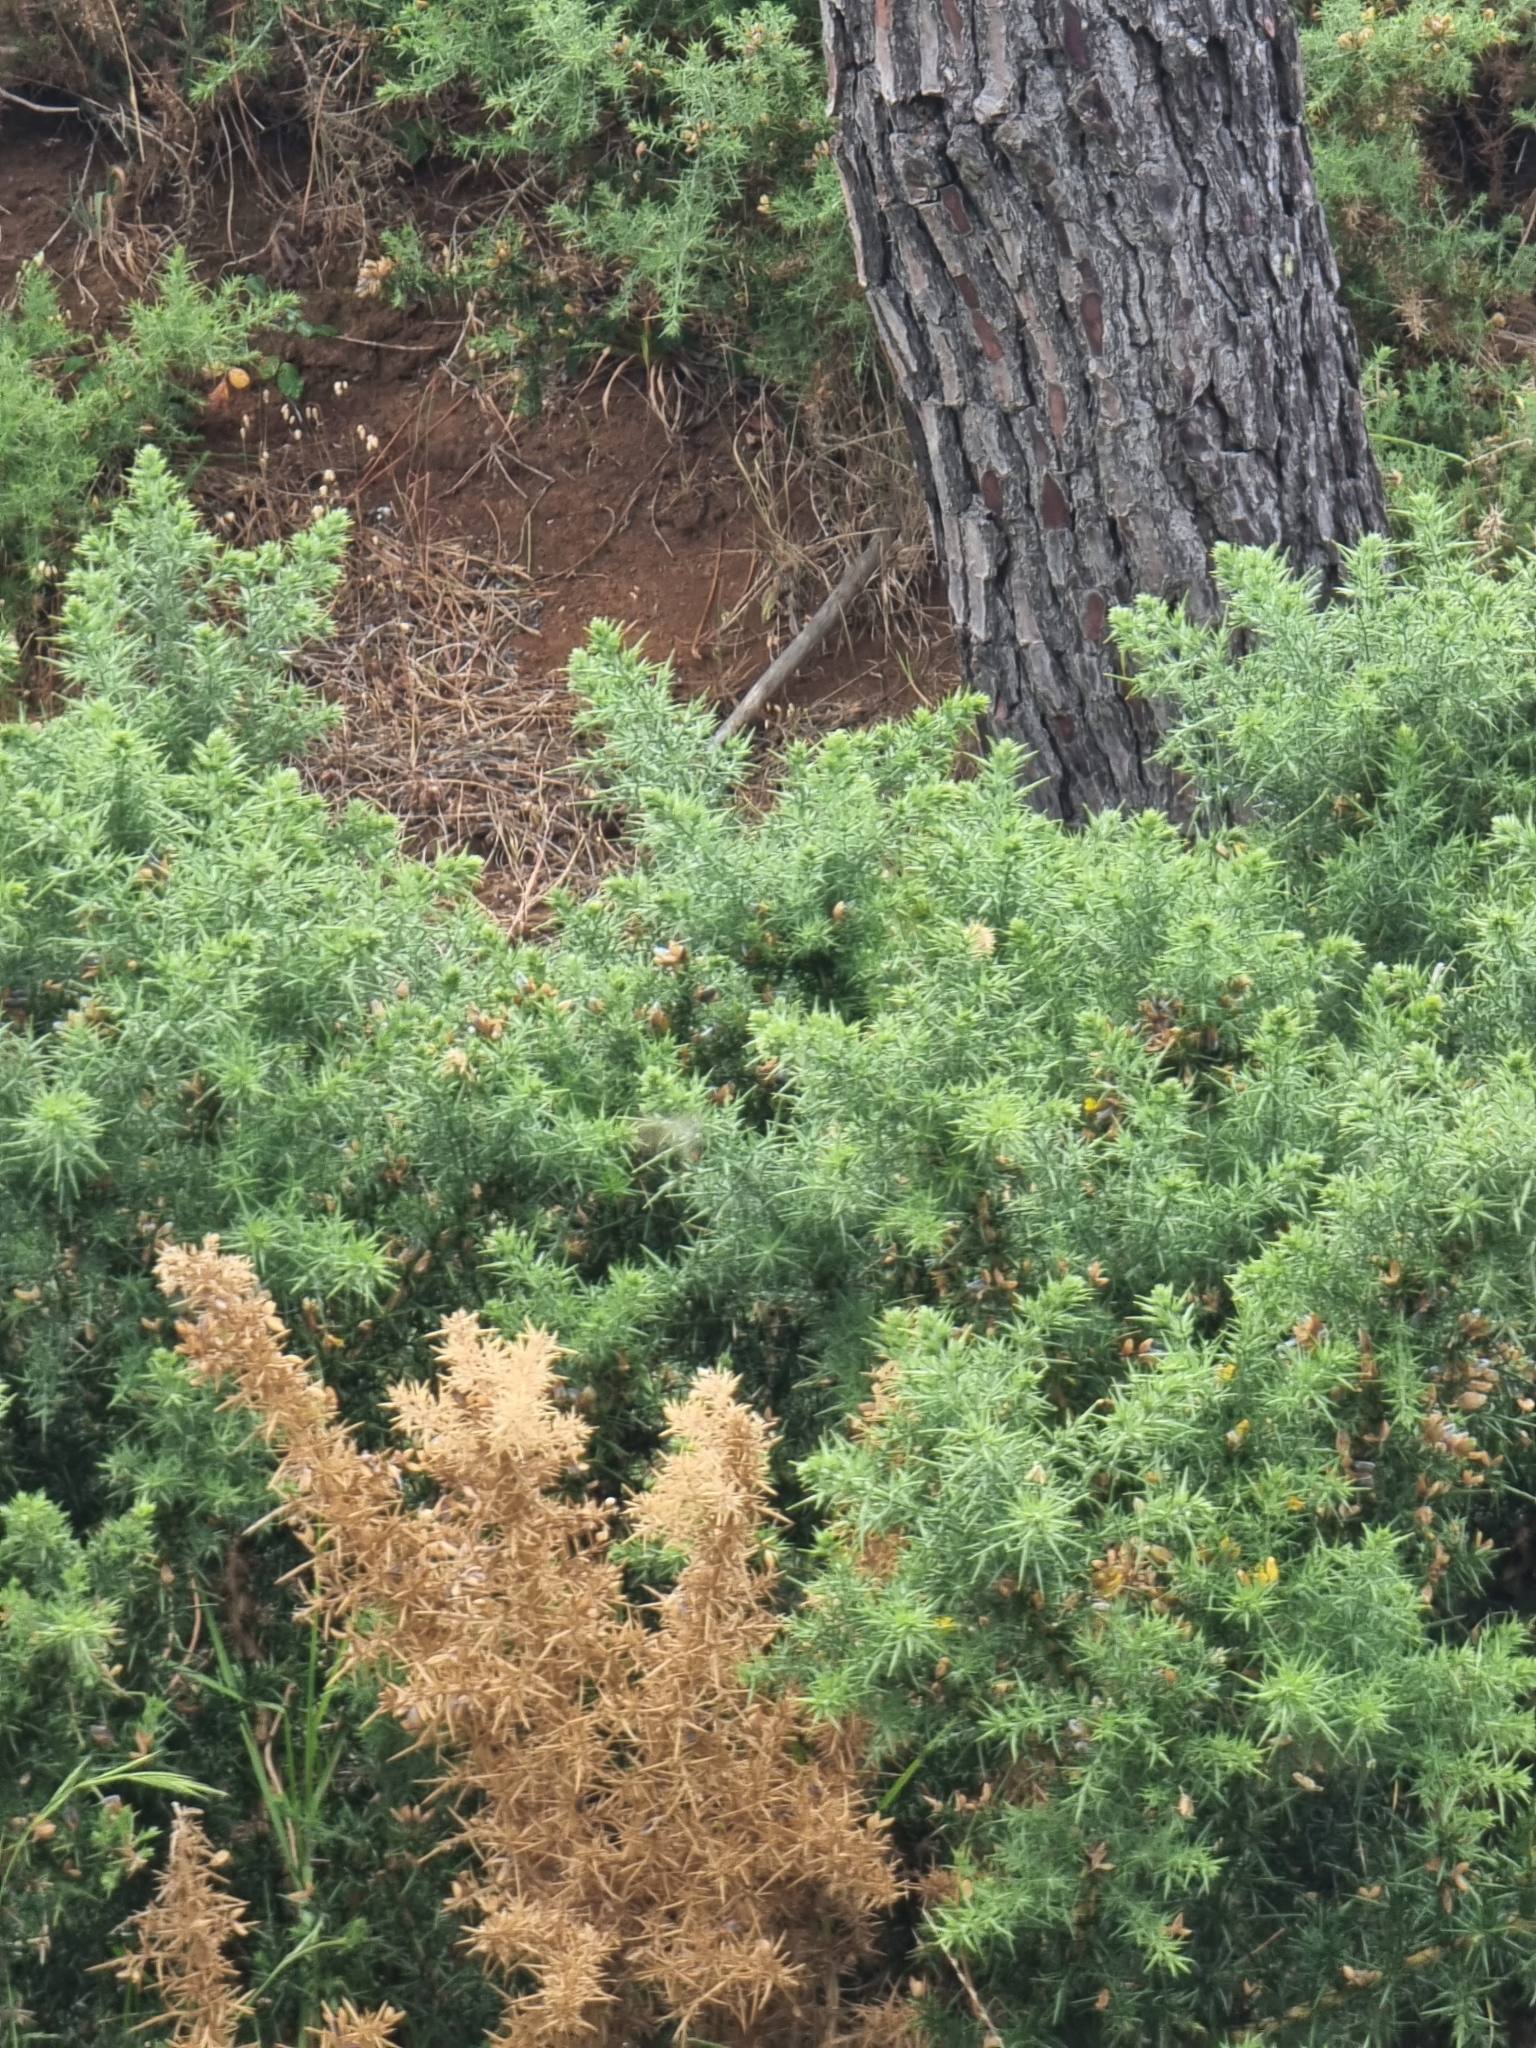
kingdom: Plantae
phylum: Tracheophyta
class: Magnoliopsida
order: Fabales
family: Fabaceae
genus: Ulex
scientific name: Ulex europaeus
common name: Common gorse
